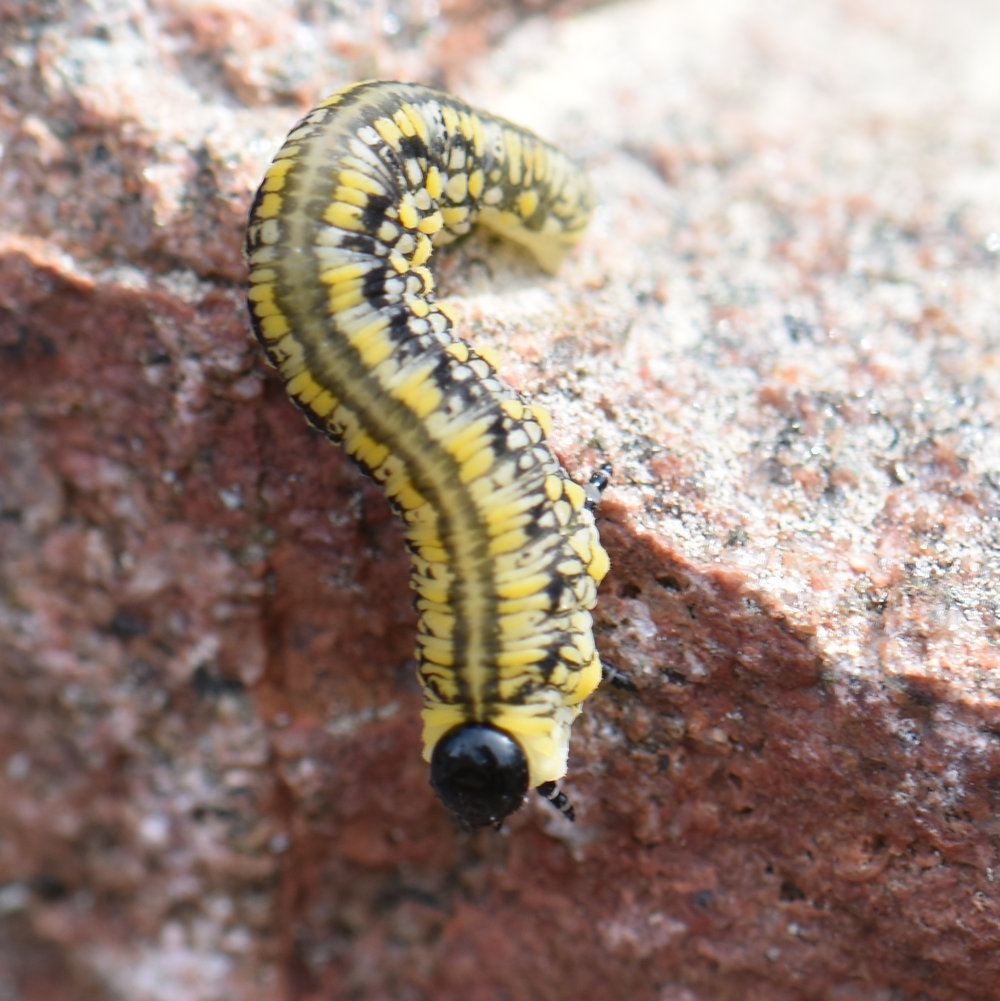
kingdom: Animalia
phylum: Arthropoda
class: Insecta
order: Hymenoptera
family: Diprionidae
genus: Diprion
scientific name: Diprion similis
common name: Pine sawfly
